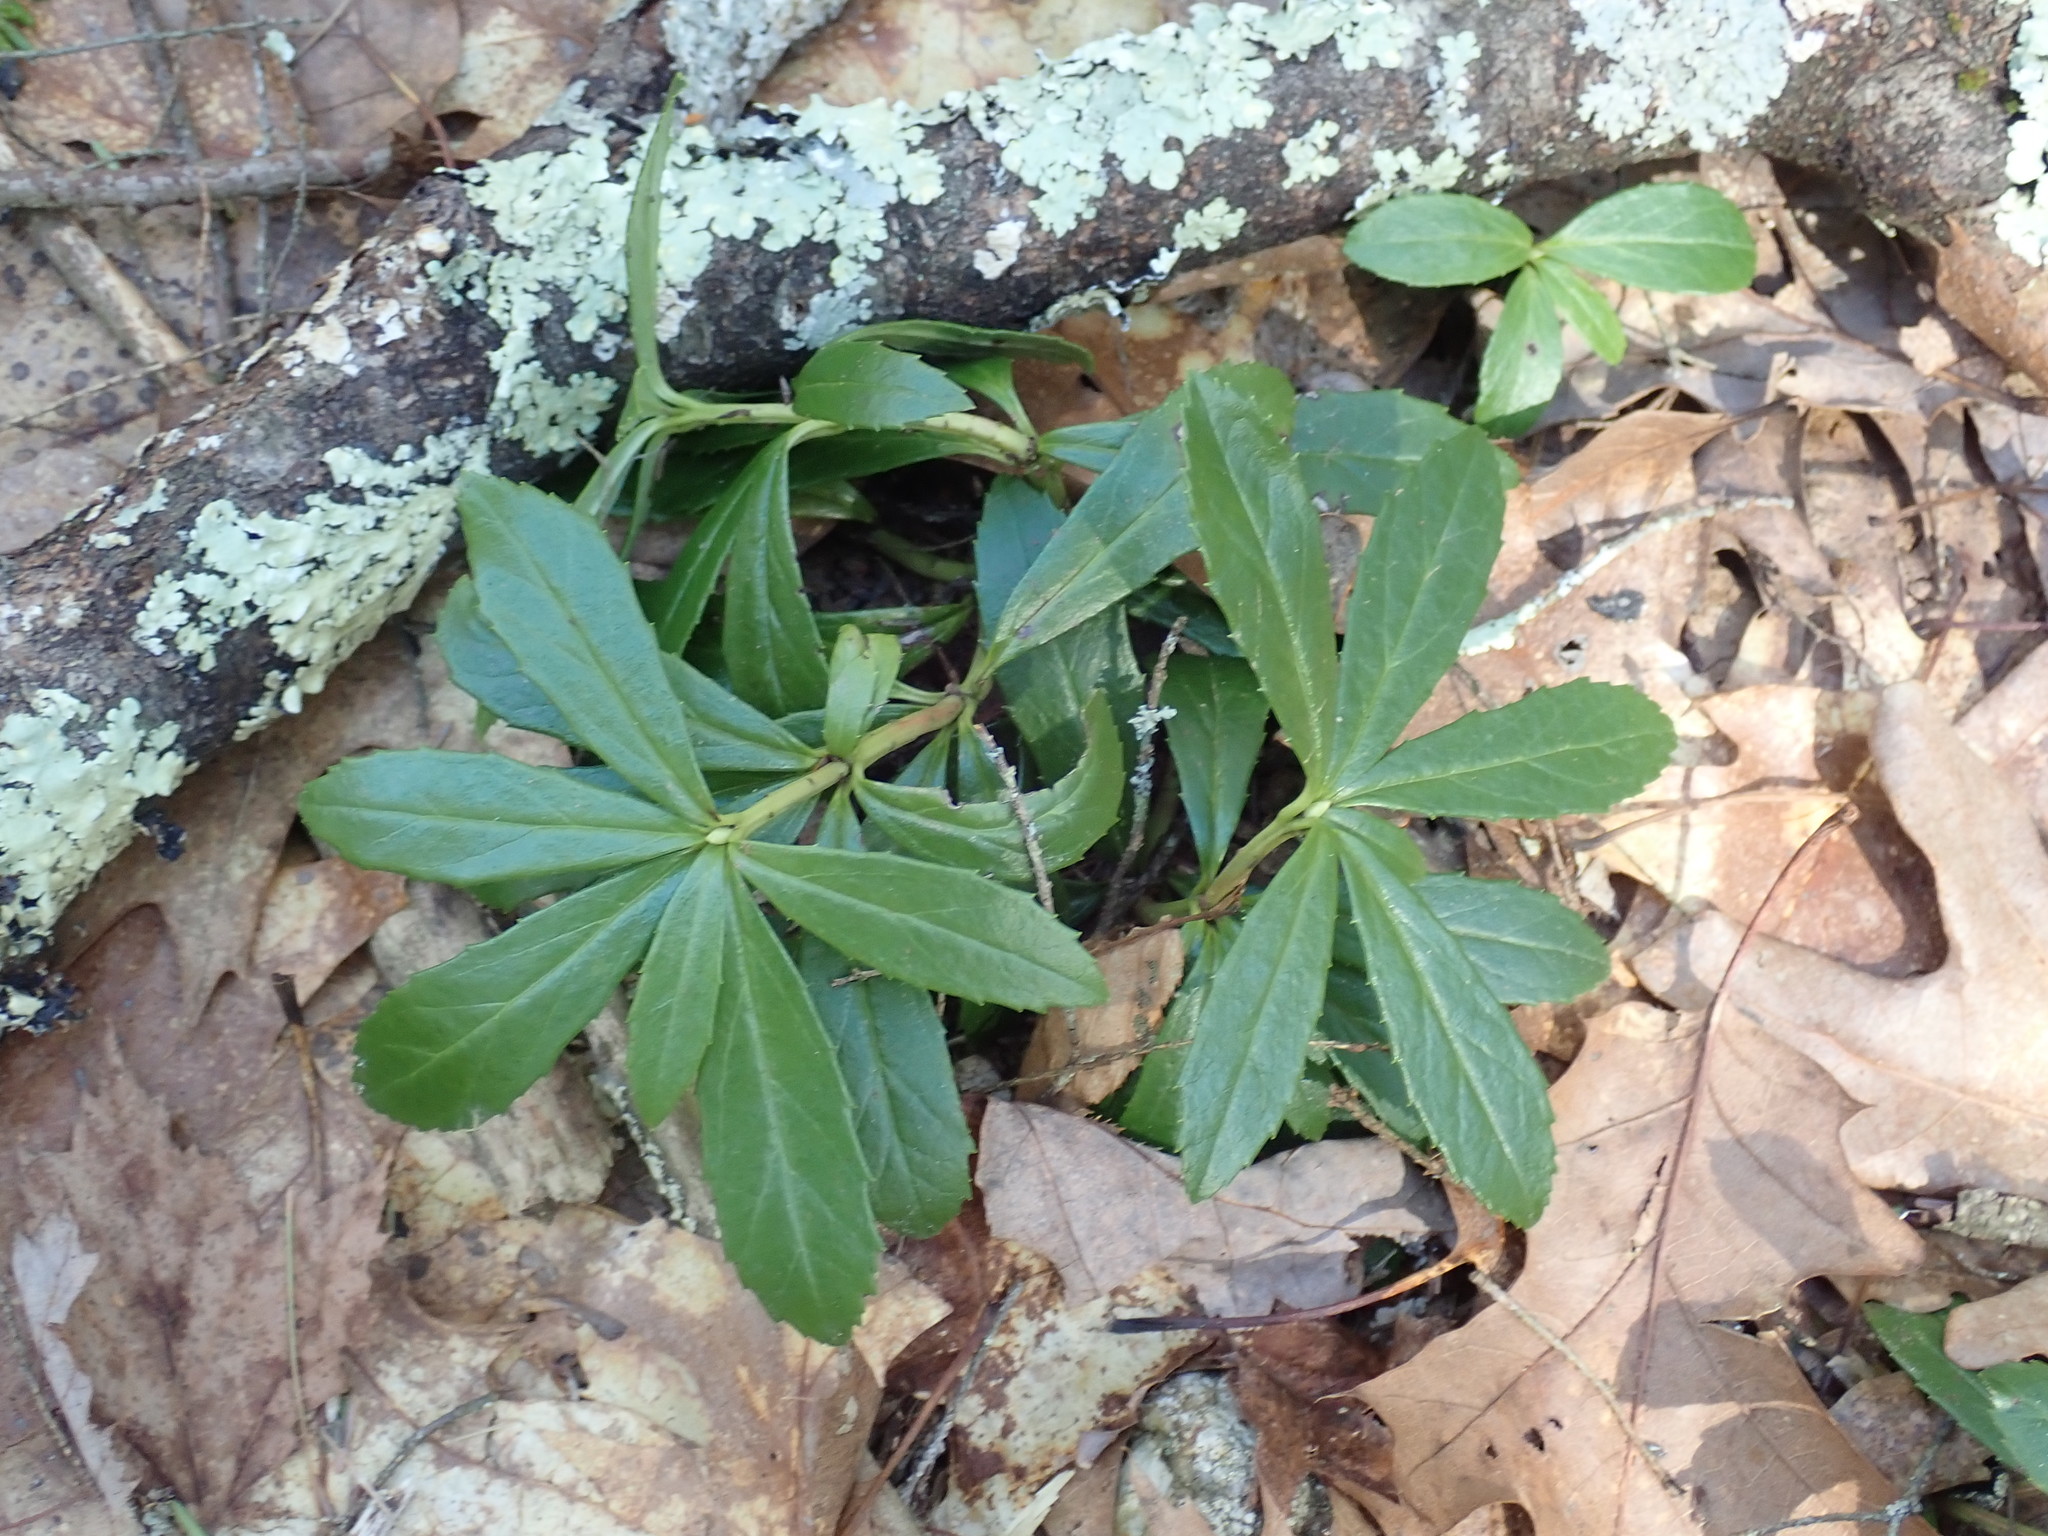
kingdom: Plantae
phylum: Tracheophyta
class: Magnoliopsida
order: Ericales
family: Ericaceae
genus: Chimaphila
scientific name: Chimaphila umbellata
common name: Pipsissewa
